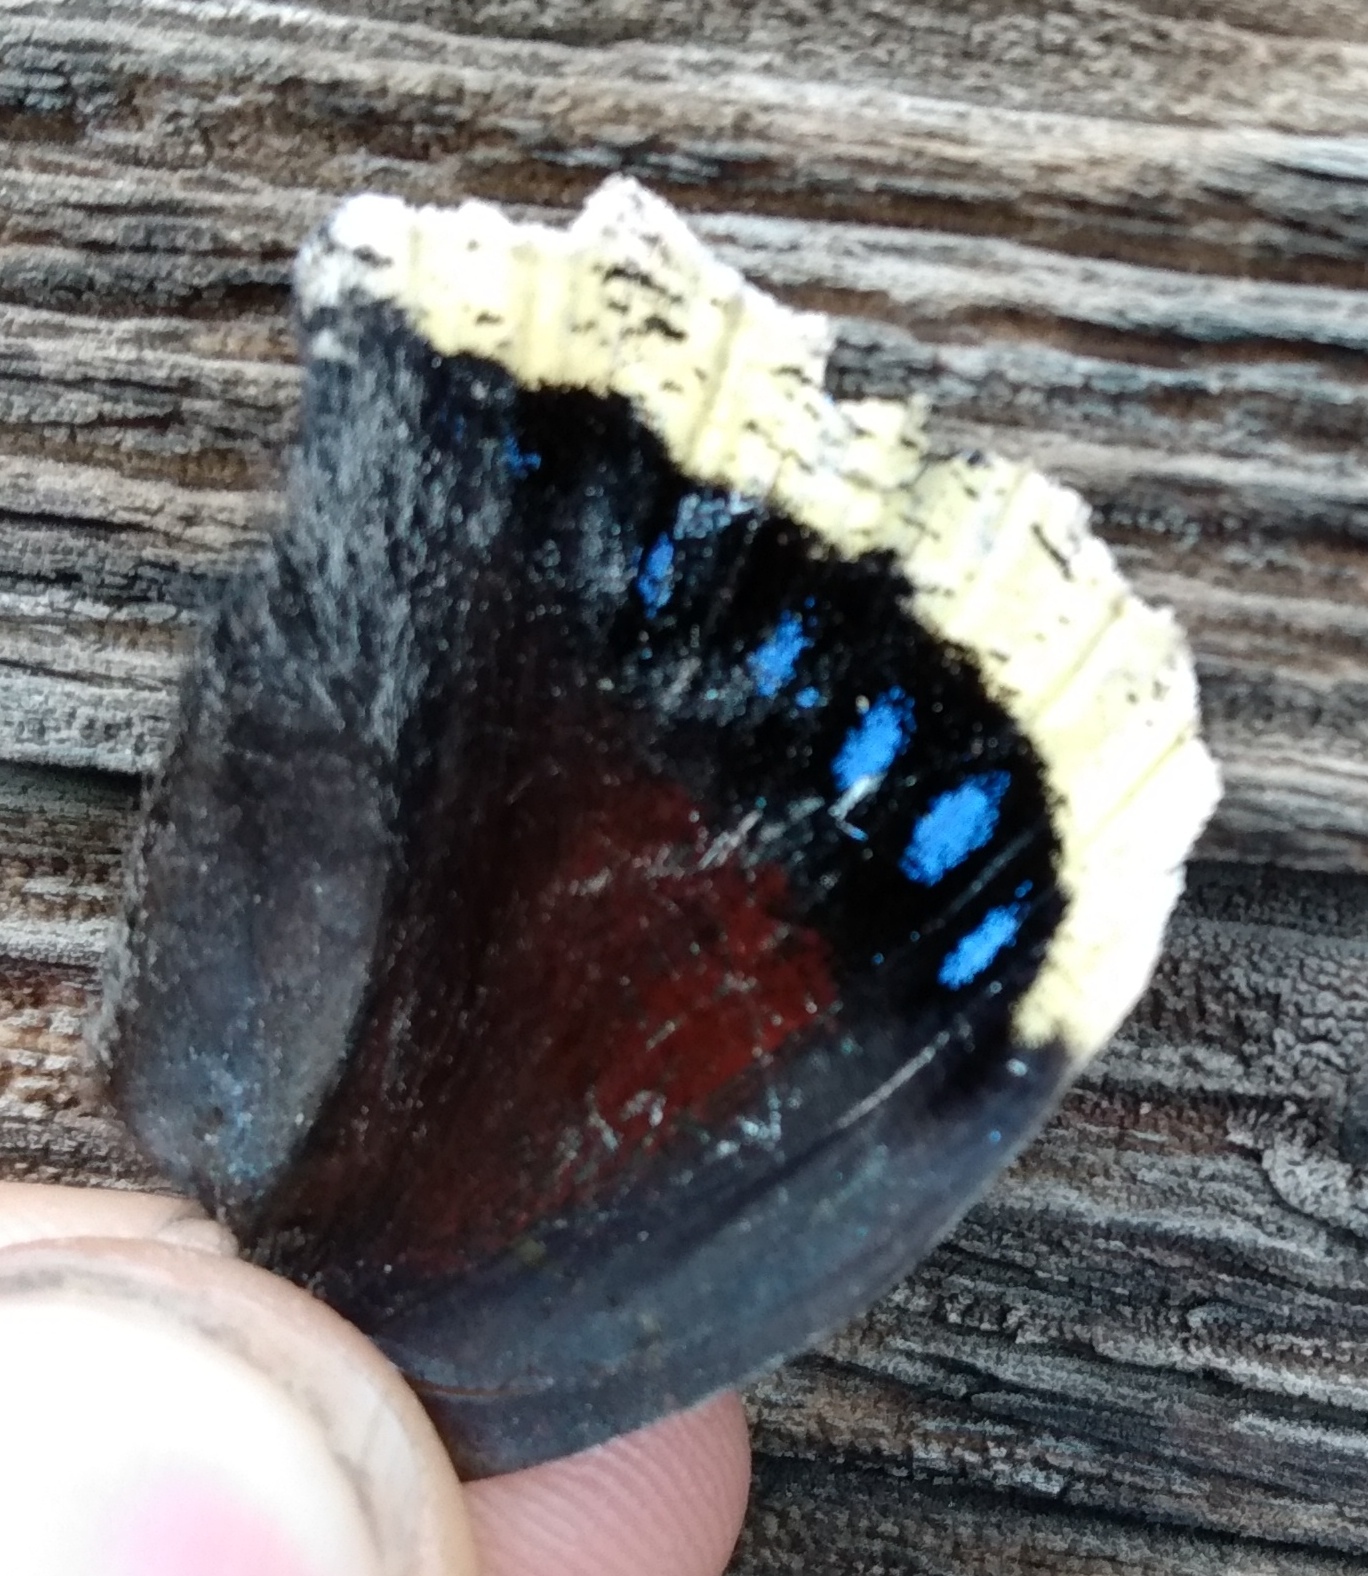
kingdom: Animalia
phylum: Arthropoda
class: Insecta
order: Lepidoptera
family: Nymphalidae
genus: Nymphalis
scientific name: Nymphalis antiopa
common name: Camberwell beauty
